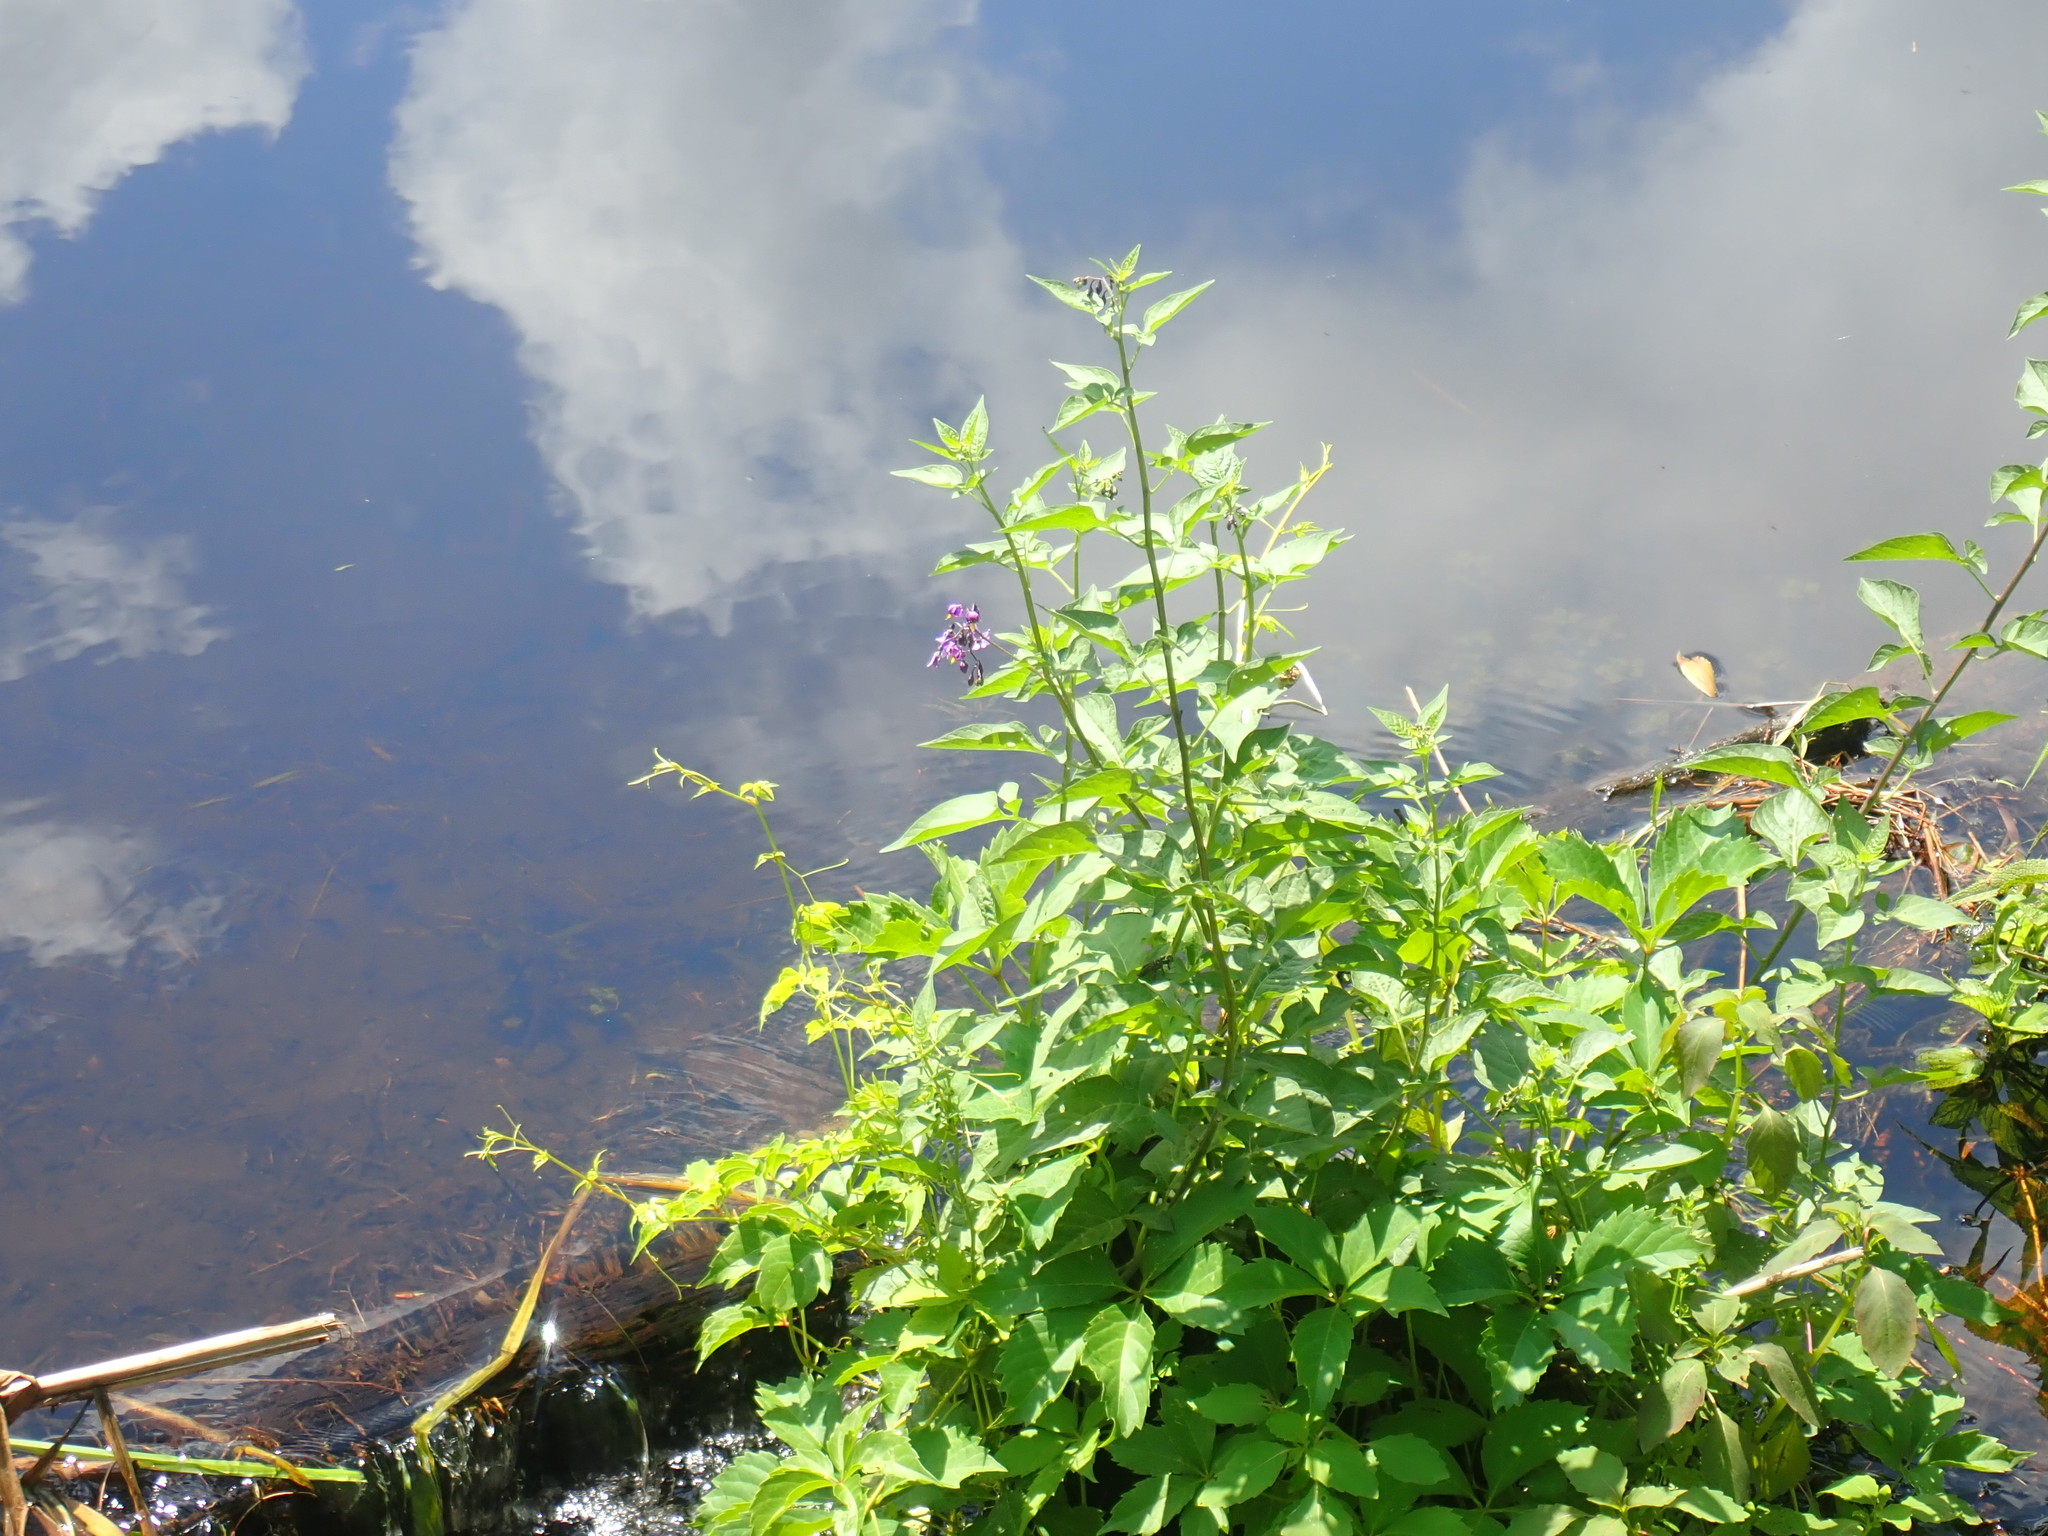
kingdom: Plantae
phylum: Tracheophyta
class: Magnoliopsida
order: Solanales
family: Solanaceae
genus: Solanum
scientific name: Solanum dulcamara
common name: Climbing nightshade
